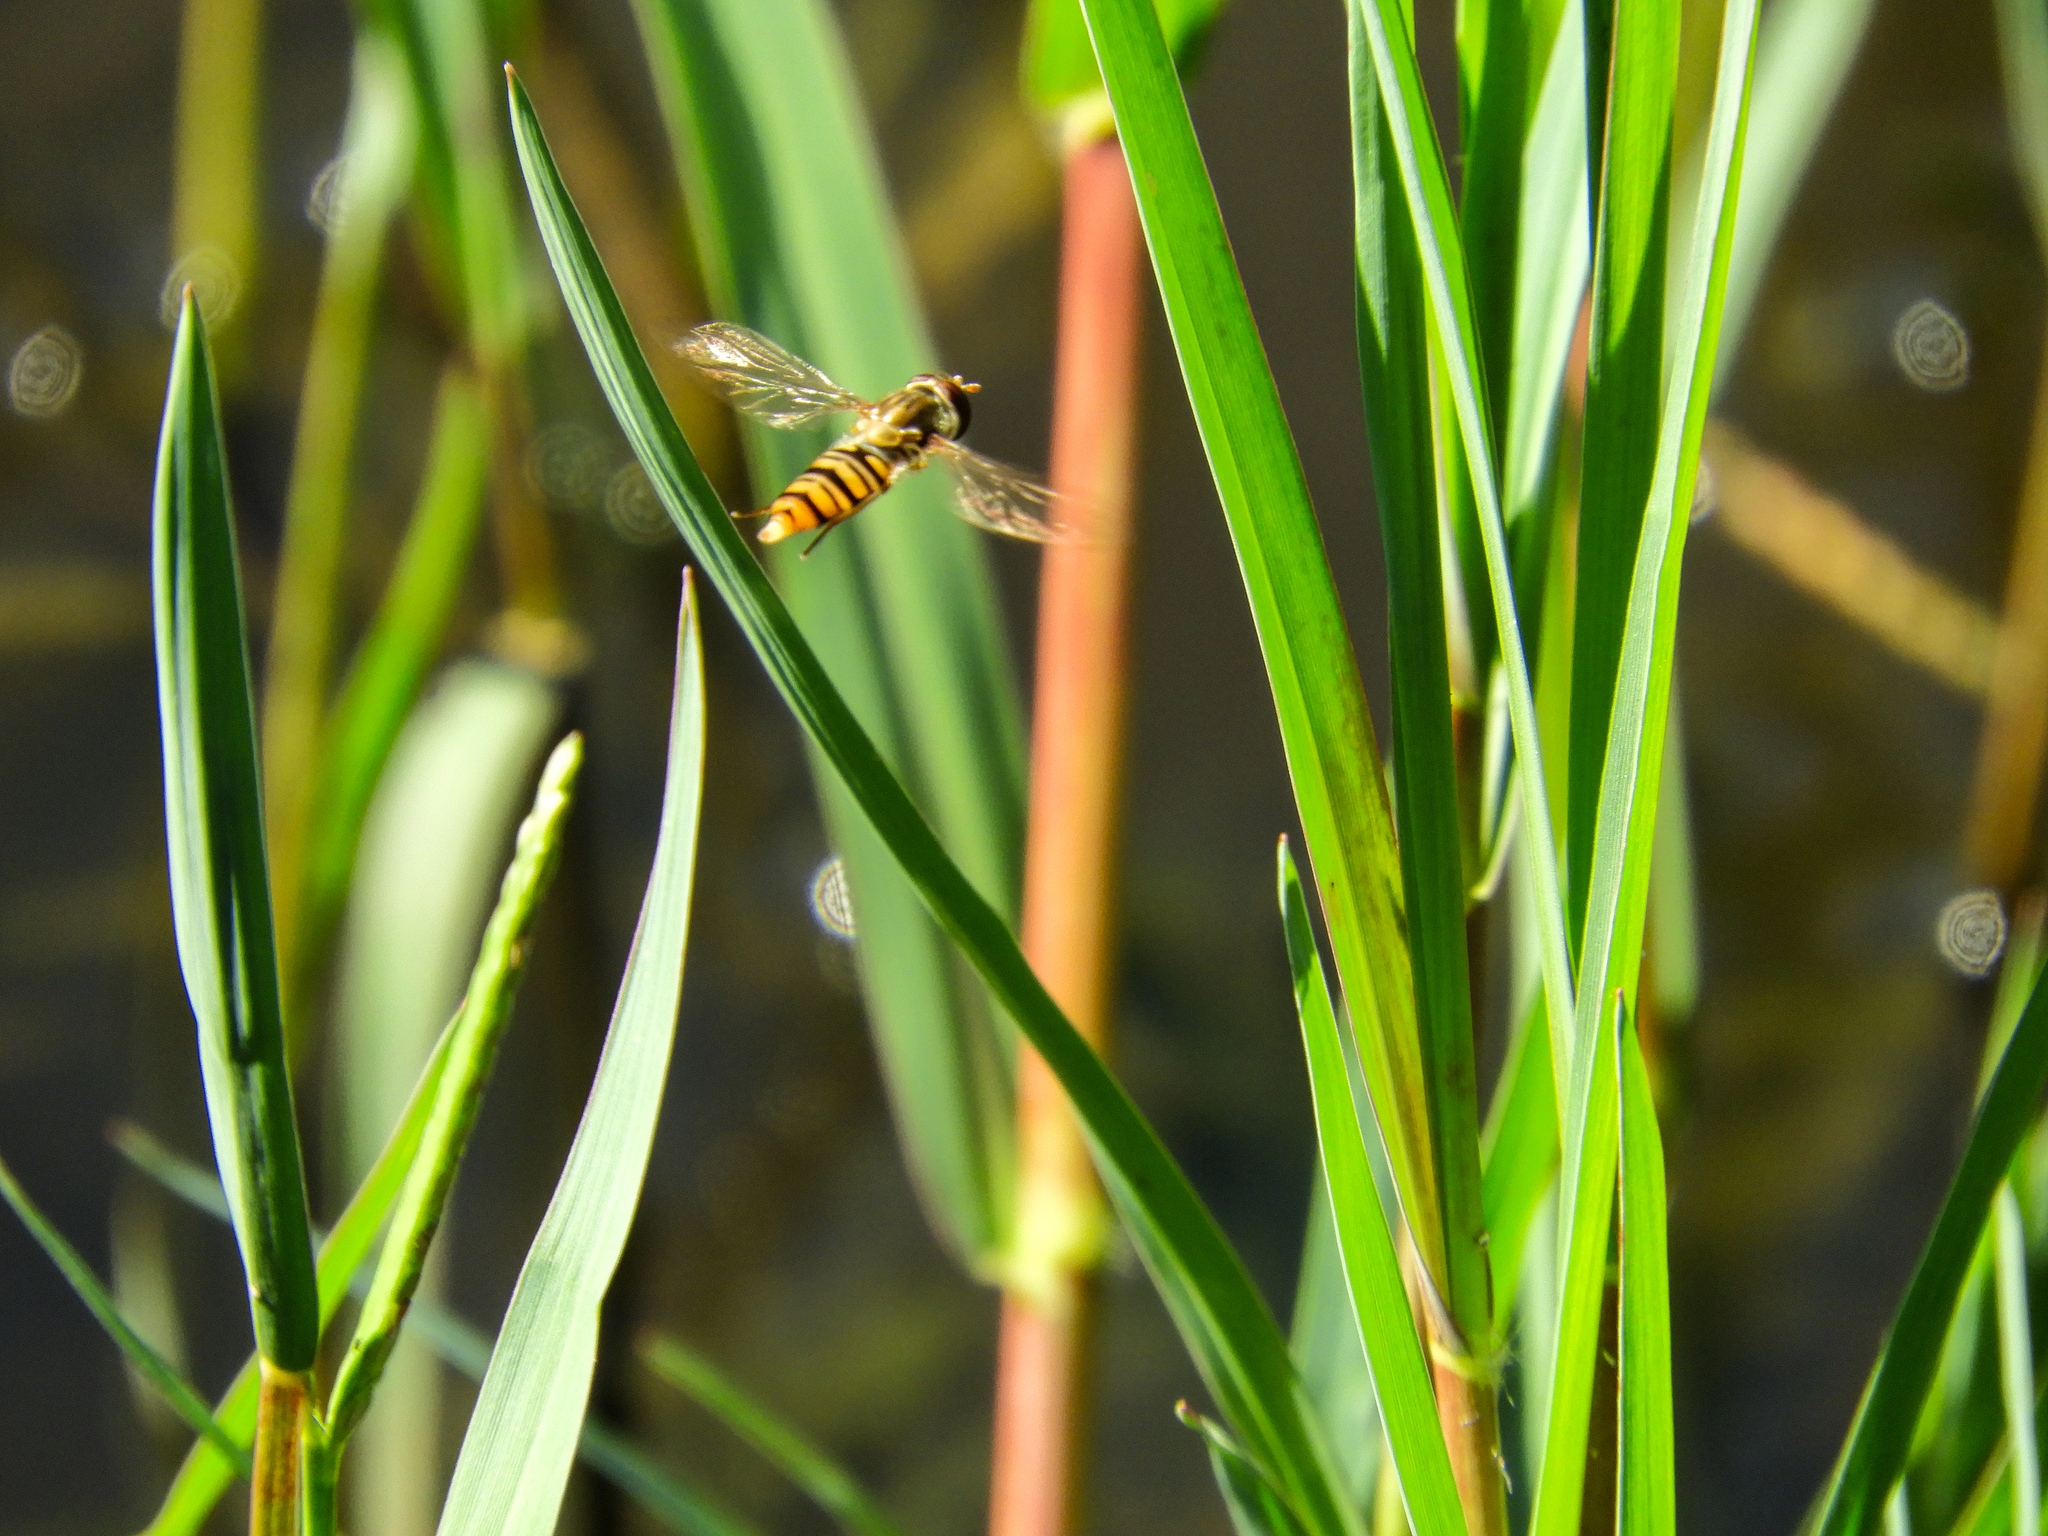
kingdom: Animalia
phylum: Arthropoda
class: Insecta
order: Diptera
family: Syrphidae
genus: Episyrphus
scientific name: Episyrphus balteatus
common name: Marmalade hoverfly
